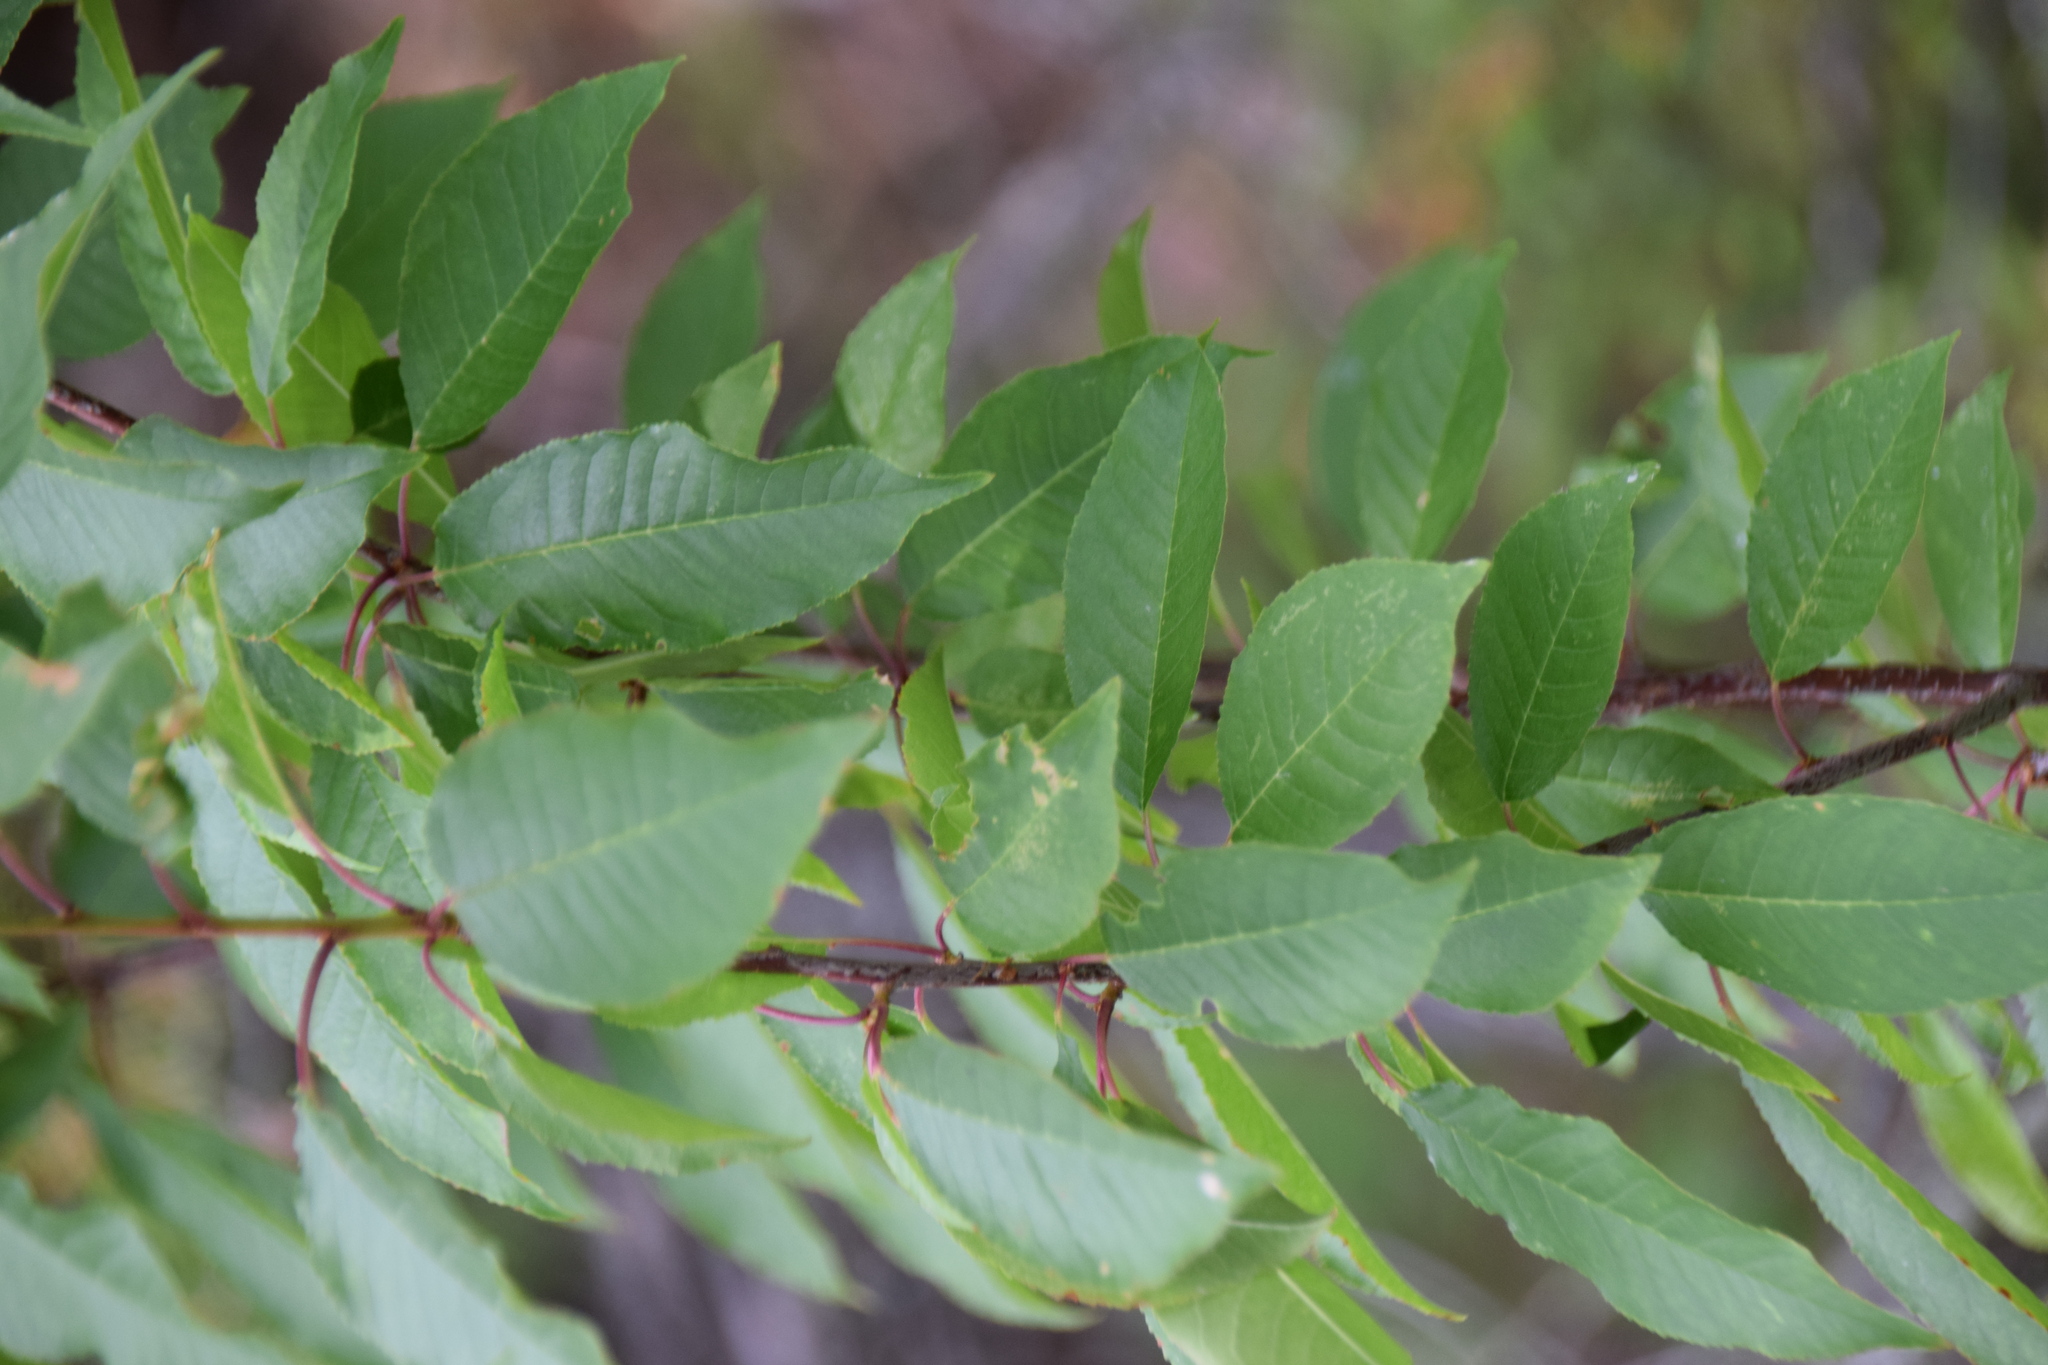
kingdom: Plantae
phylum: Tracheophyta
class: Magnoliopsida
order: Rosales
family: Rosaceae
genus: Prunus
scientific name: Prunus pensylvanica
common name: Pin cherry
